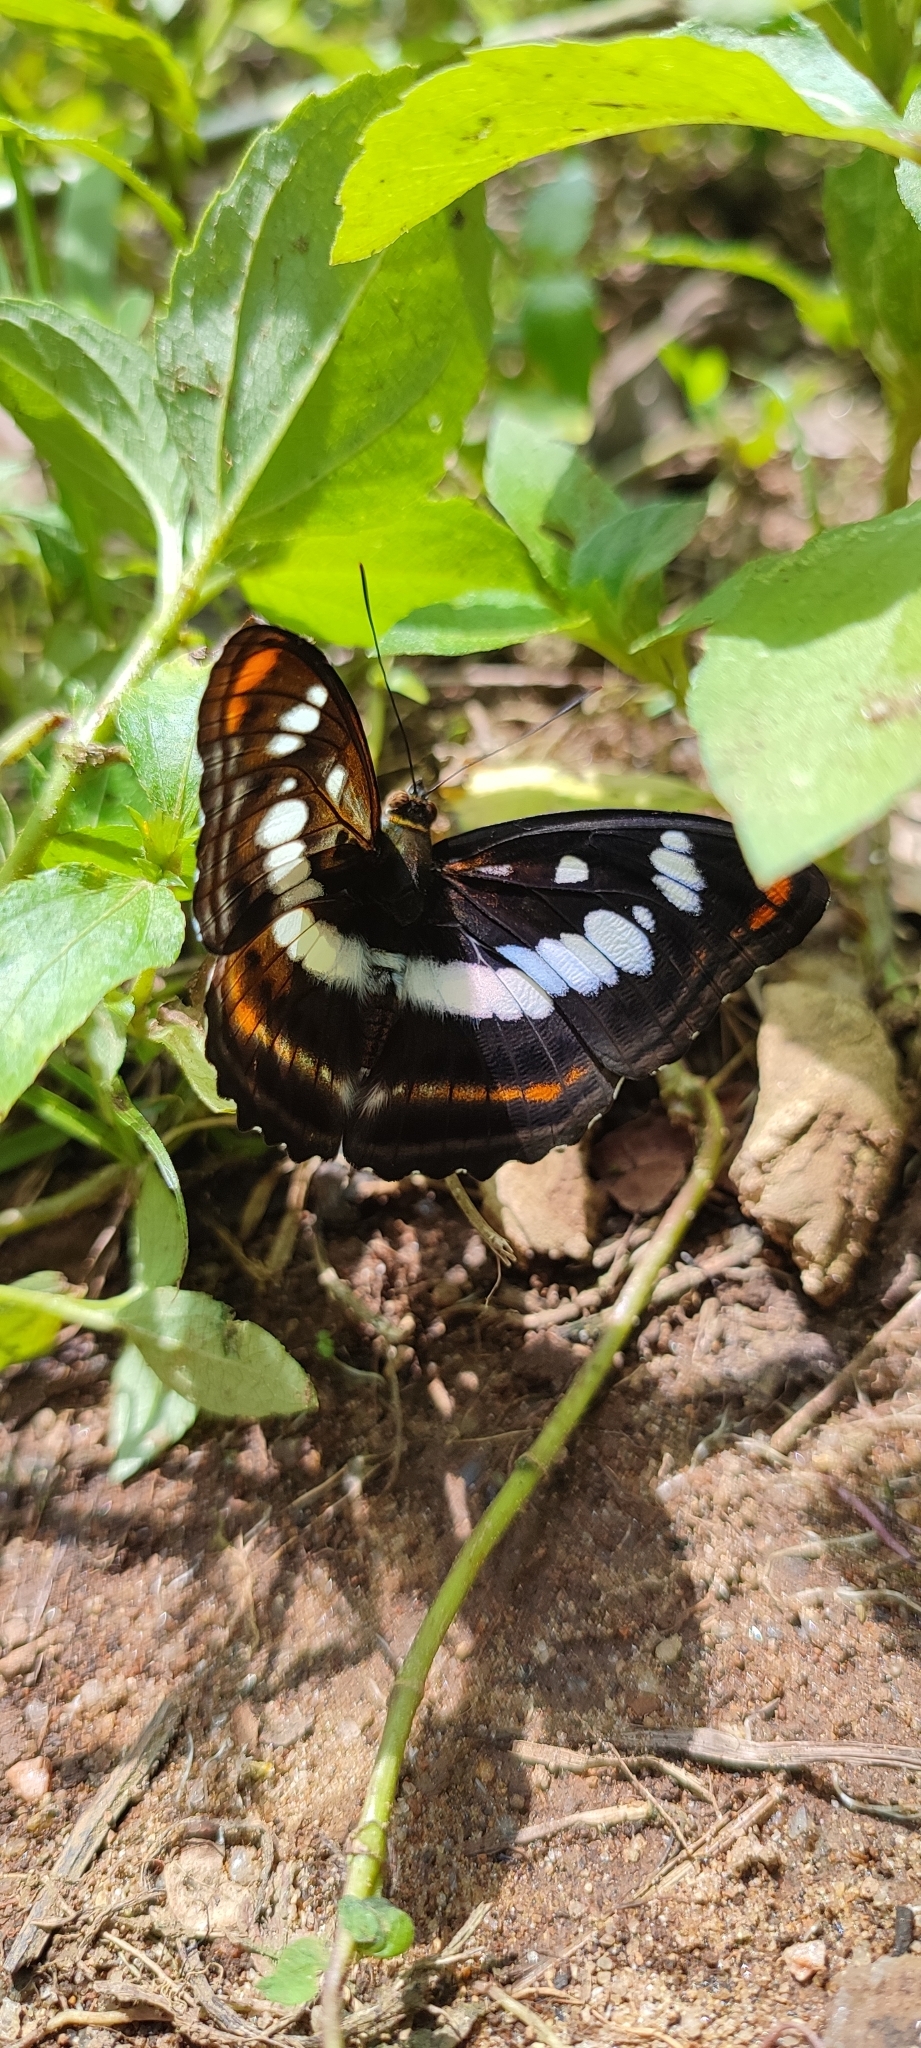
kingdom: Animalia
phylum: Arthropoda
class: Insecta
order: Lepidoptera
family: Nymphalidae
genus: Parathyma
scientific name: Parathyma nefte
